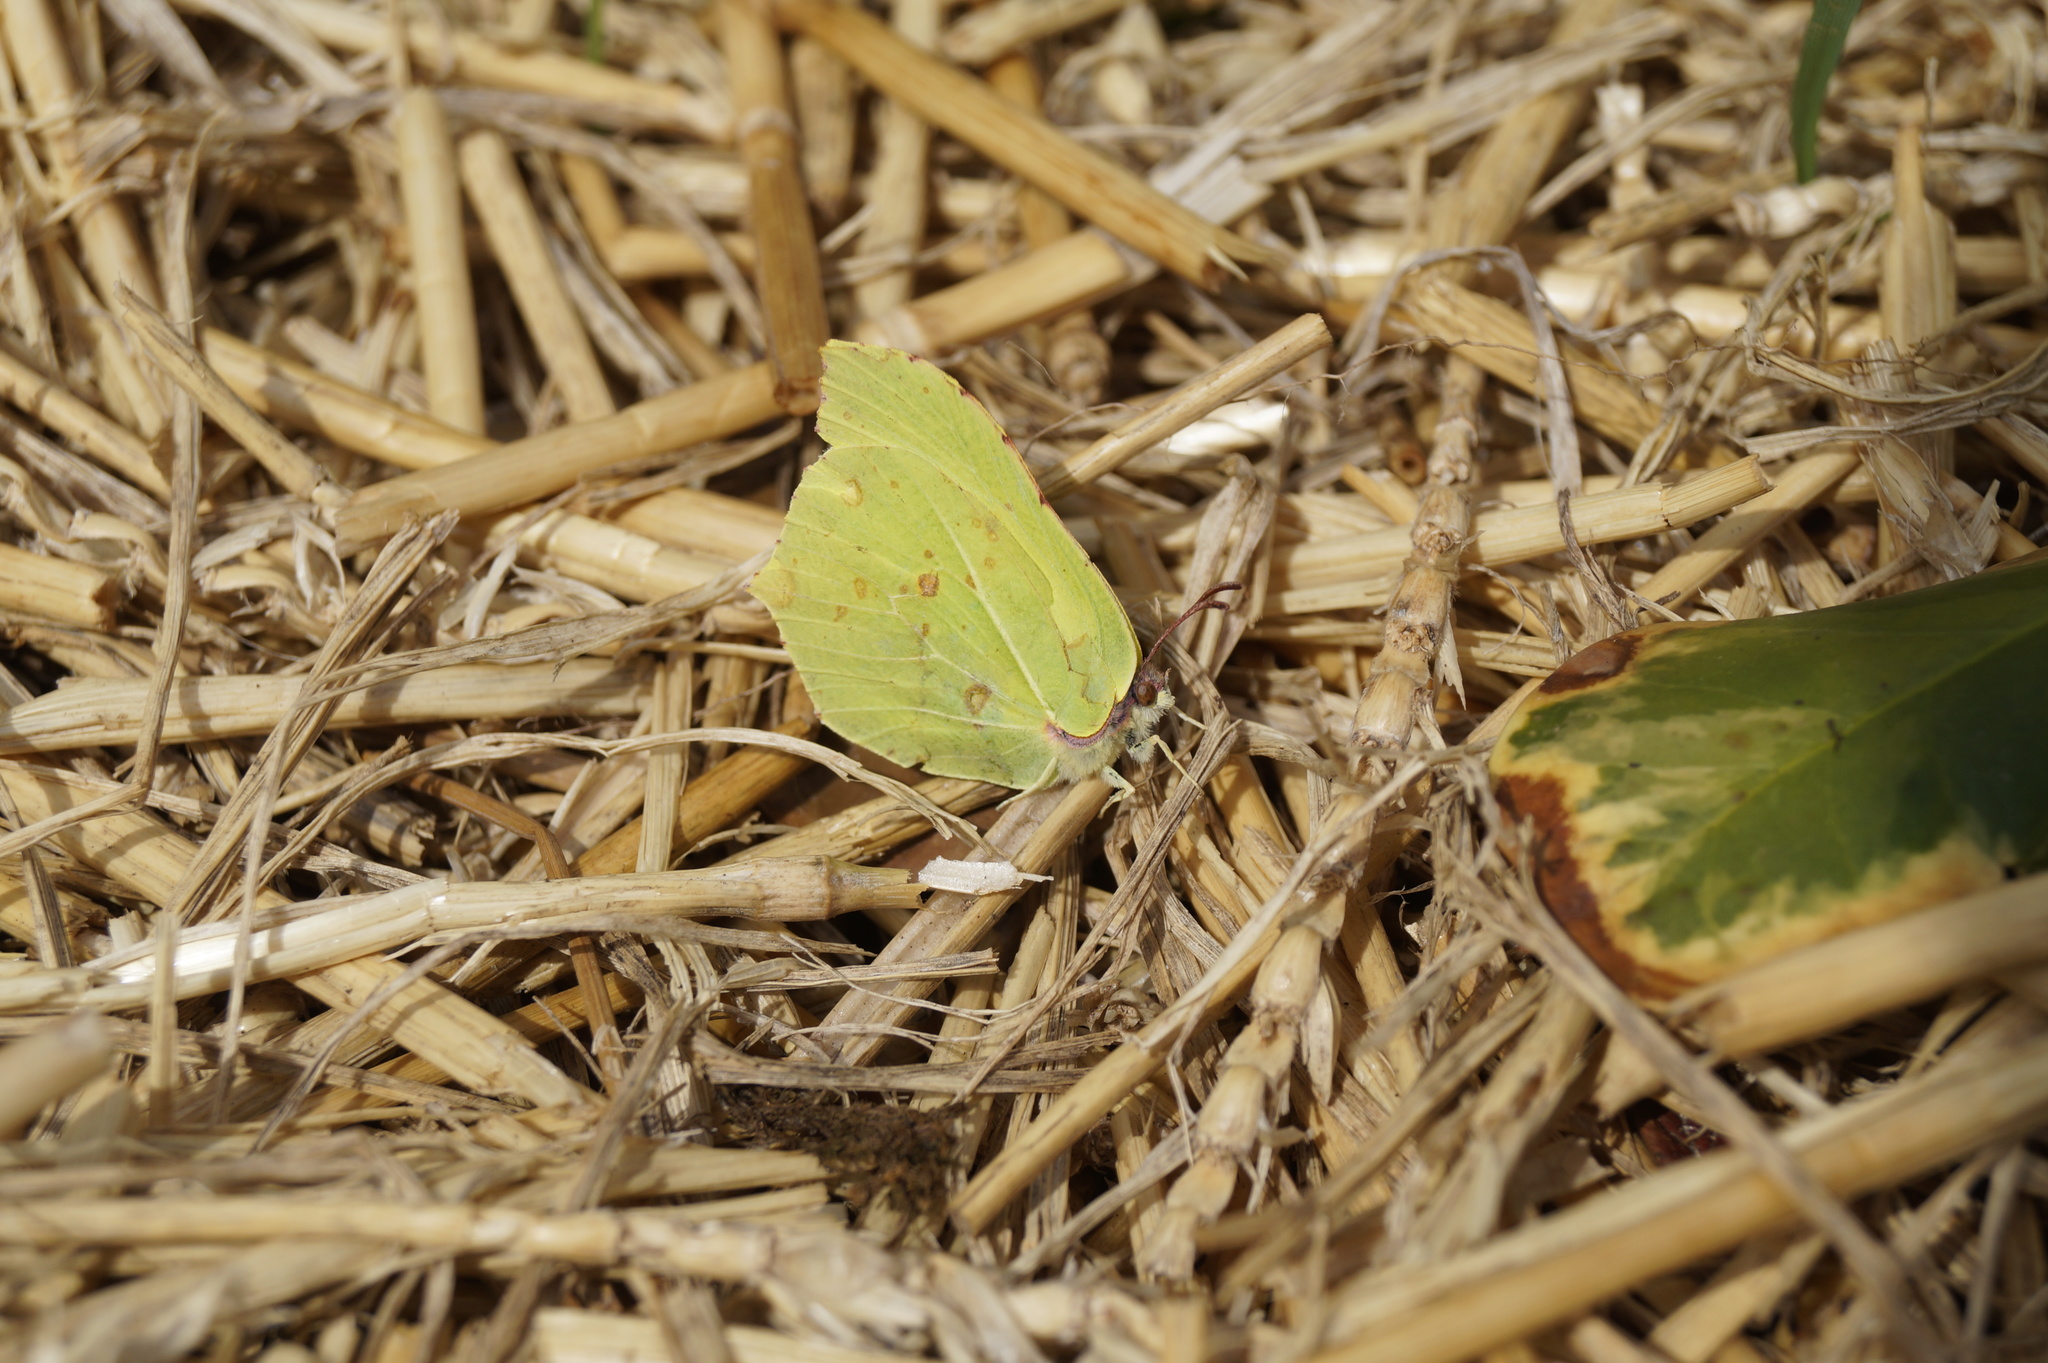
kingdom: Animalia
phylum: Arthropoda
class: Insecta
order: Lepidoptera
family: Pieridae
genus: Gonepteryx
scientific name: Gonepteryx rhamni
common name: Brimstone
